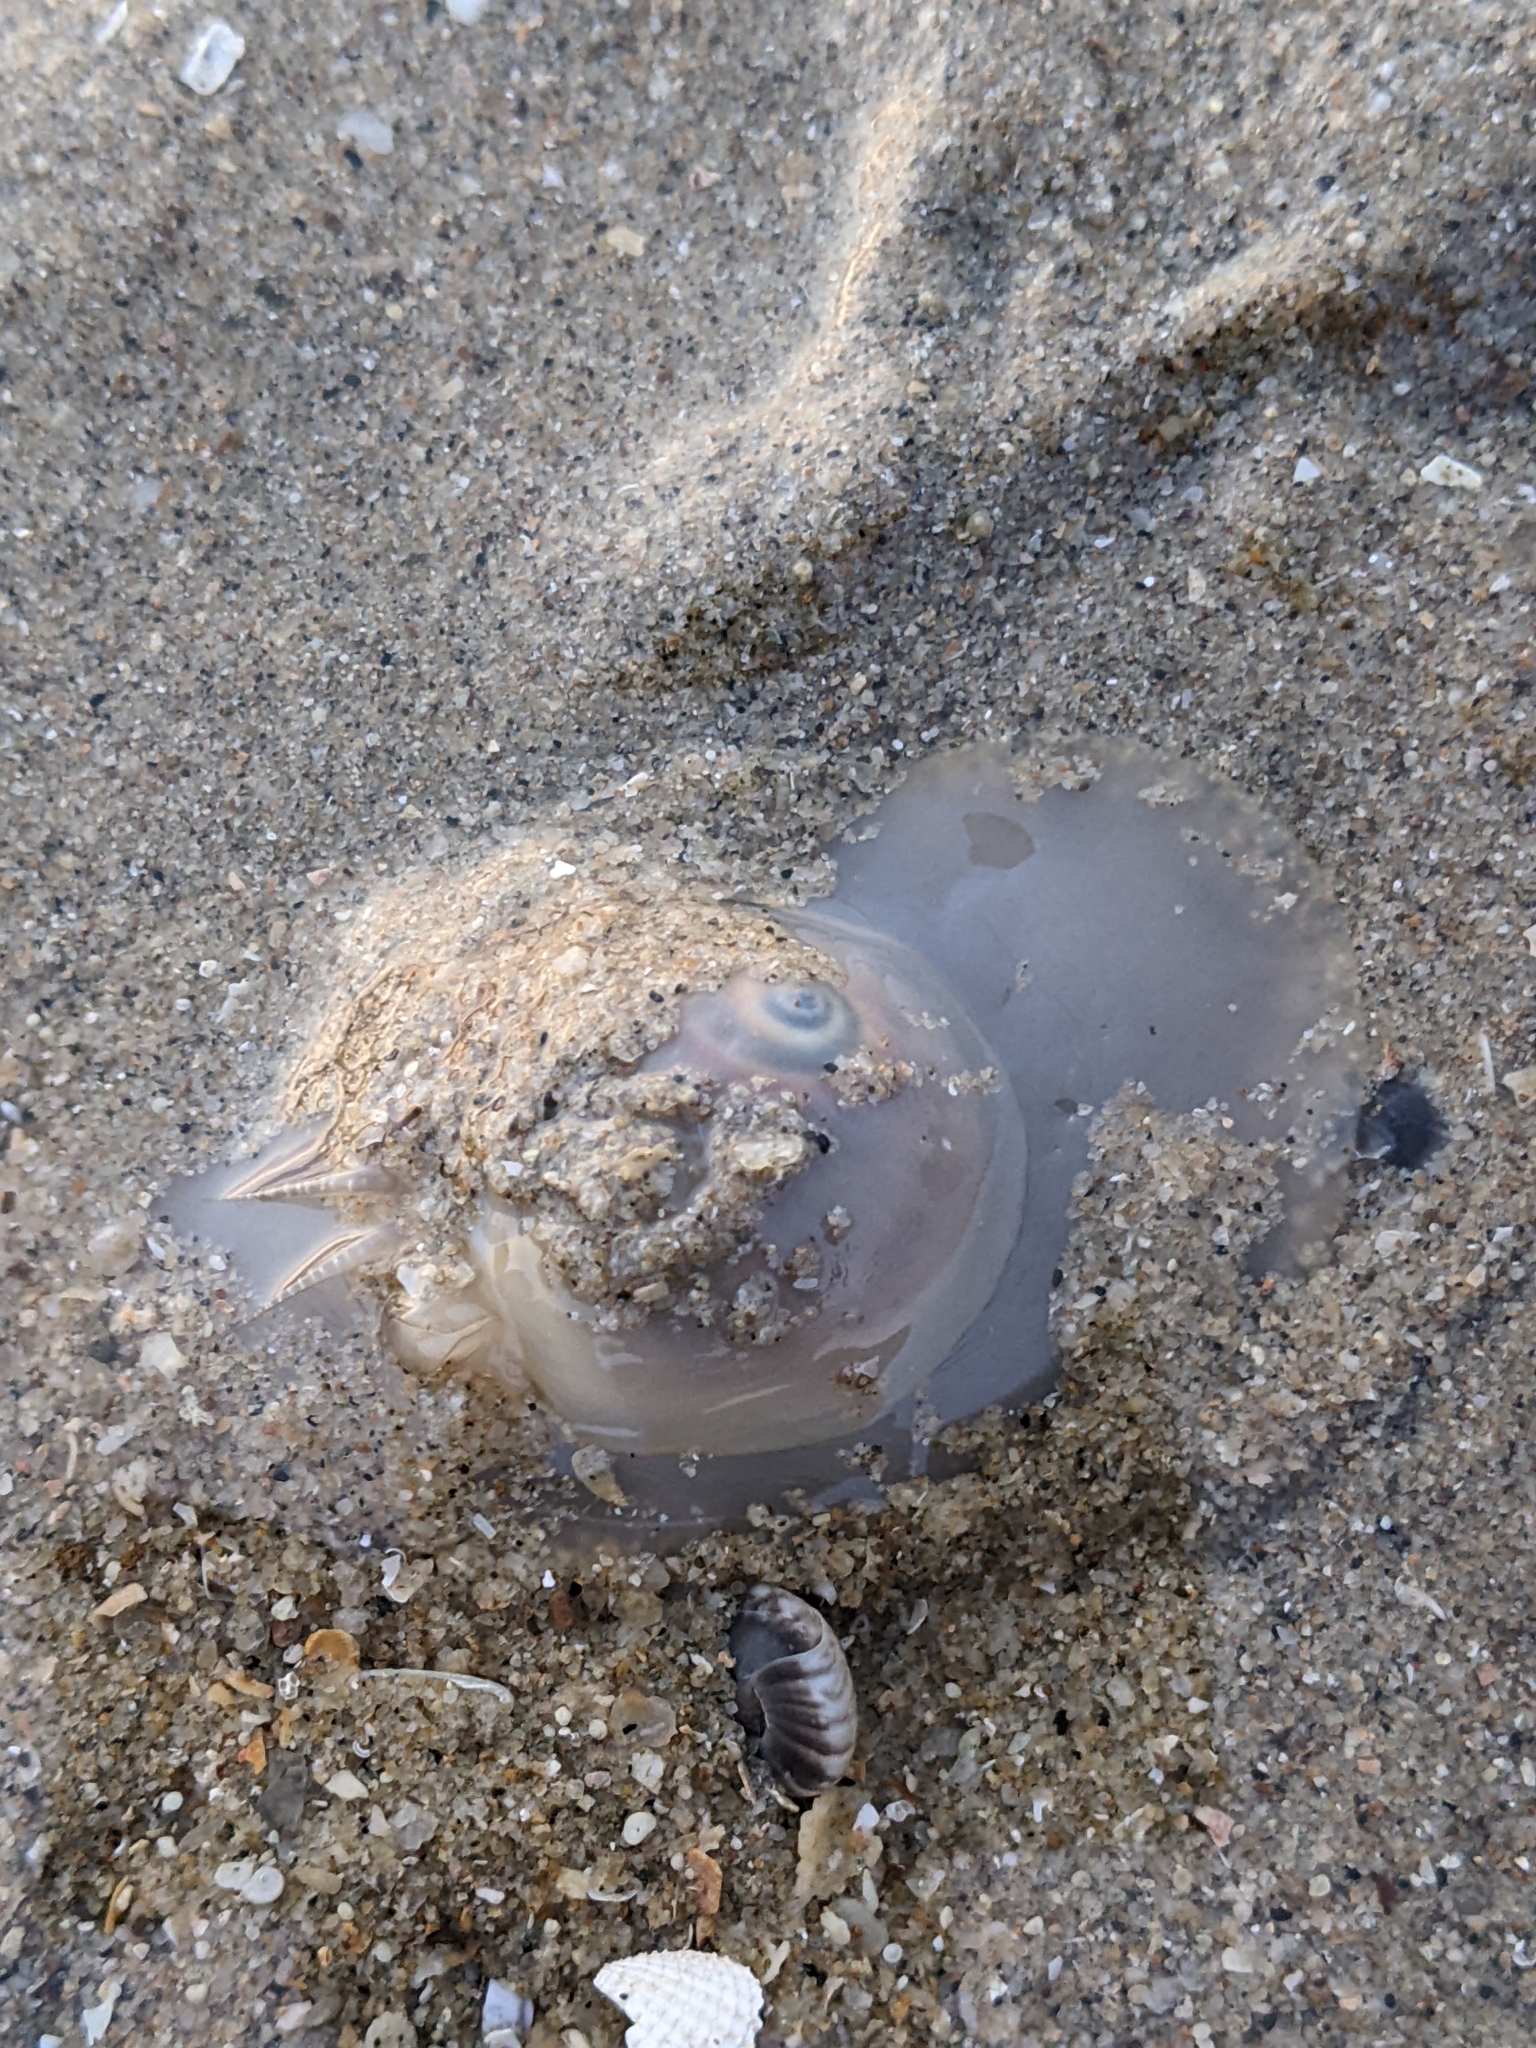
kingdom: Animalia
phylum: Mollusca
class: Gastropoda
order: Littorinimorpha
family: Naticidae
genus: Neverita
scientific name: Neverita didyma
